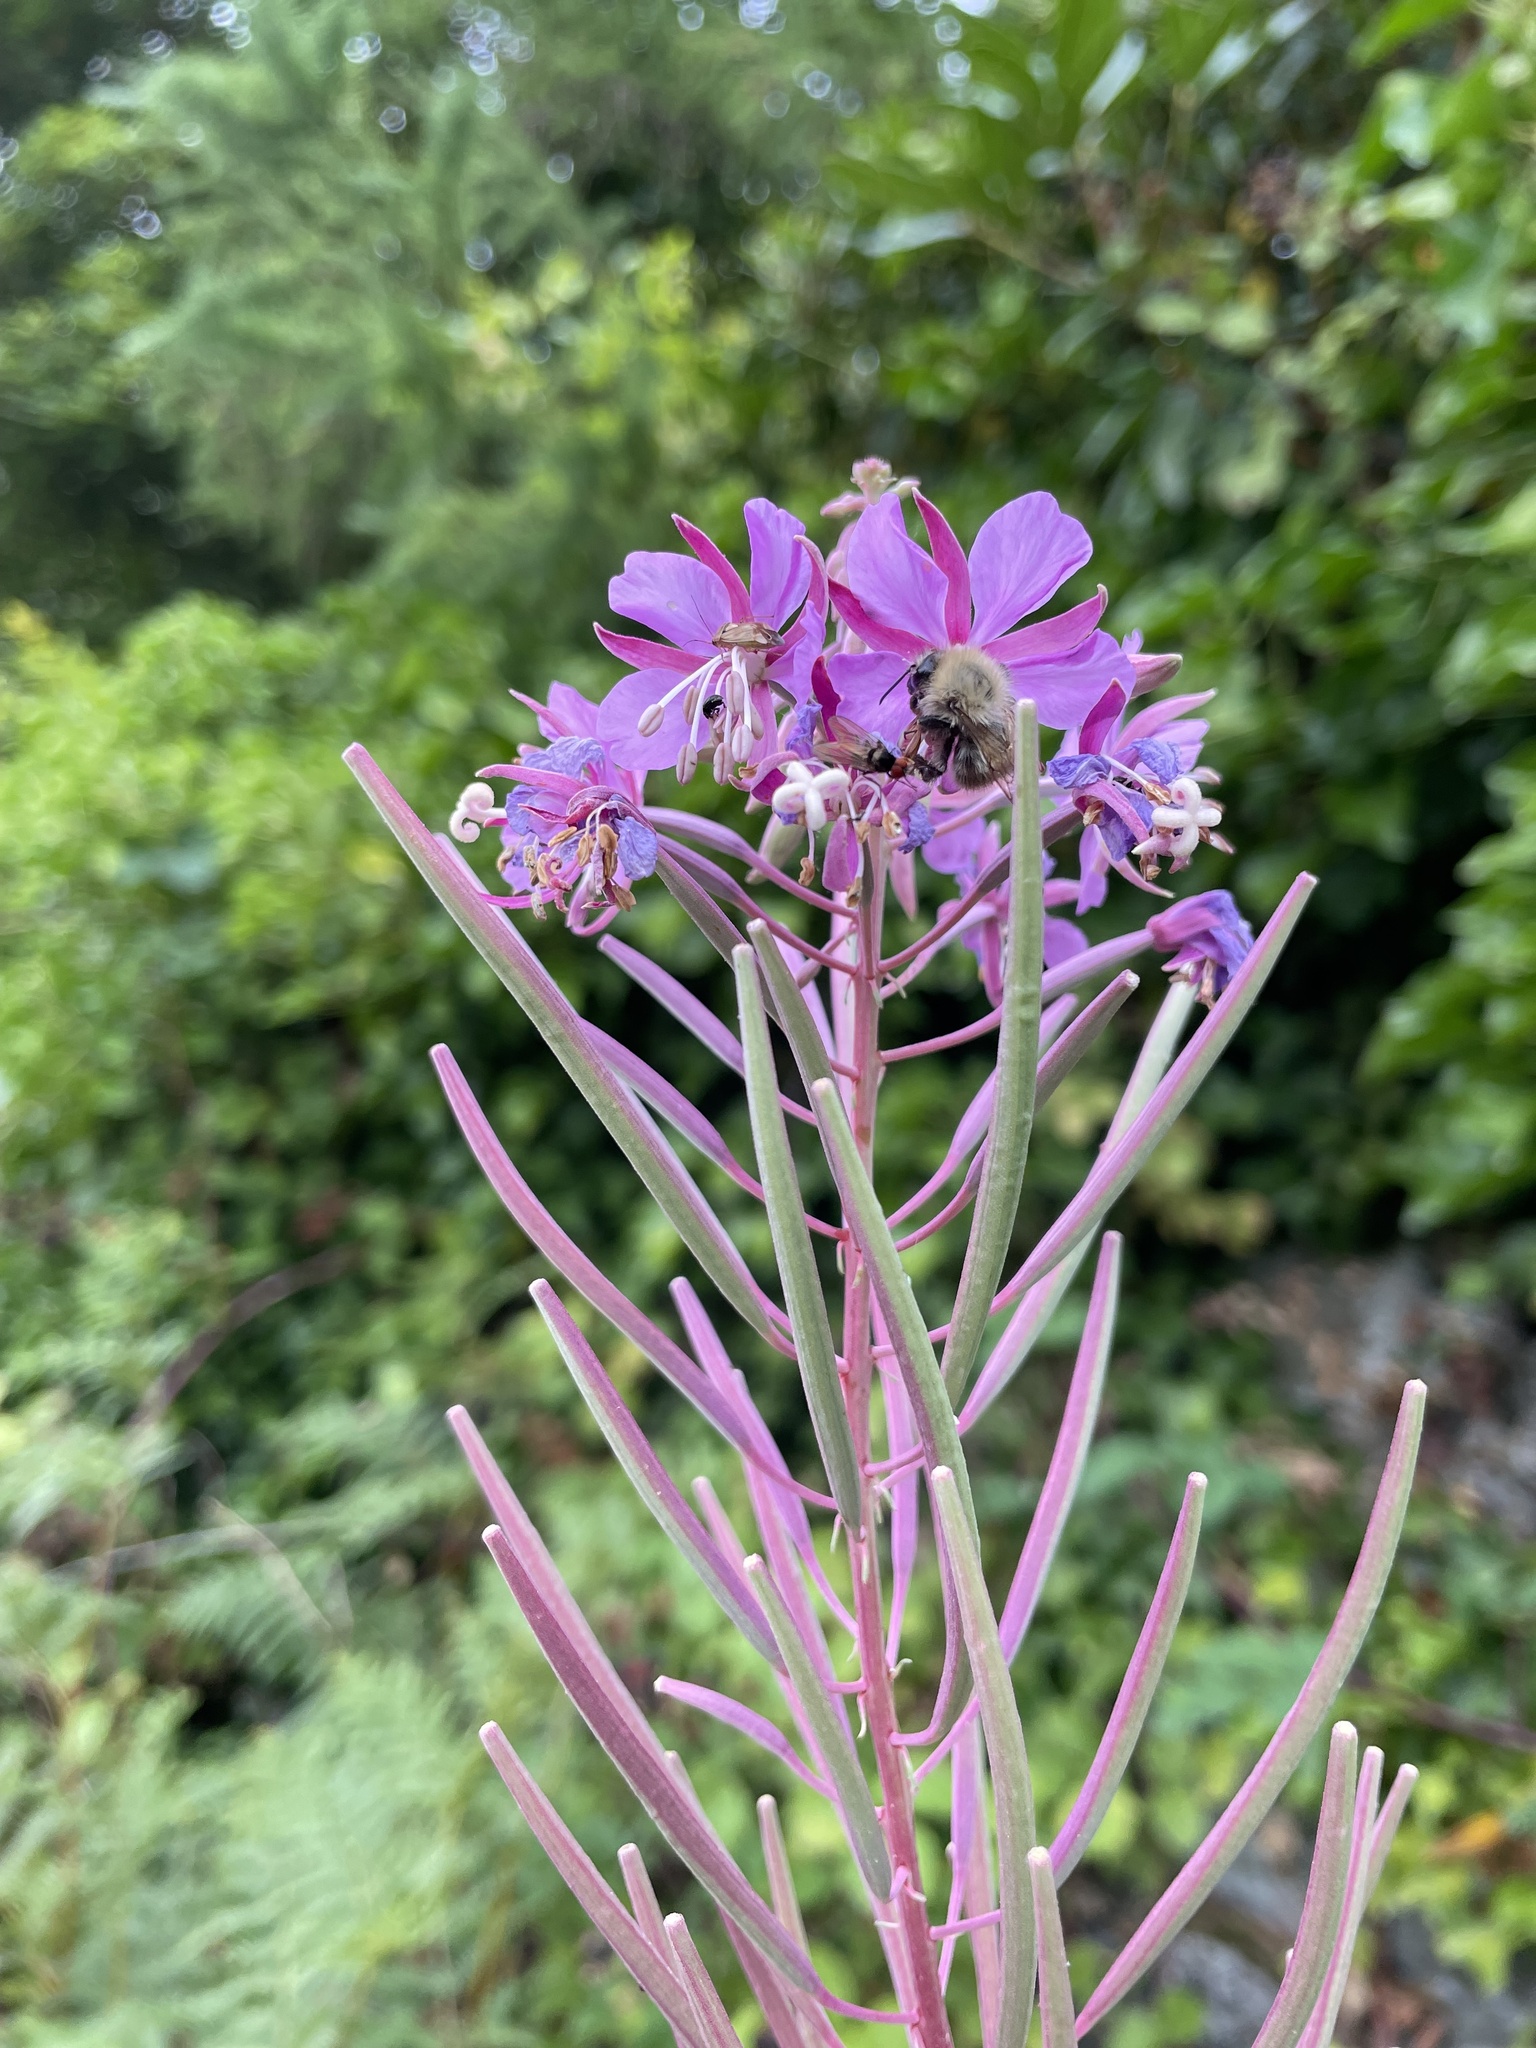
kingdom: Plantae
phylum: Tracheophyta
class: Magnoliopsida
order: Myrtales
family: Onagraceae
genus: Chamaenerion
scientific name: Chamaenerion angustifolium
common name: Fireweed
